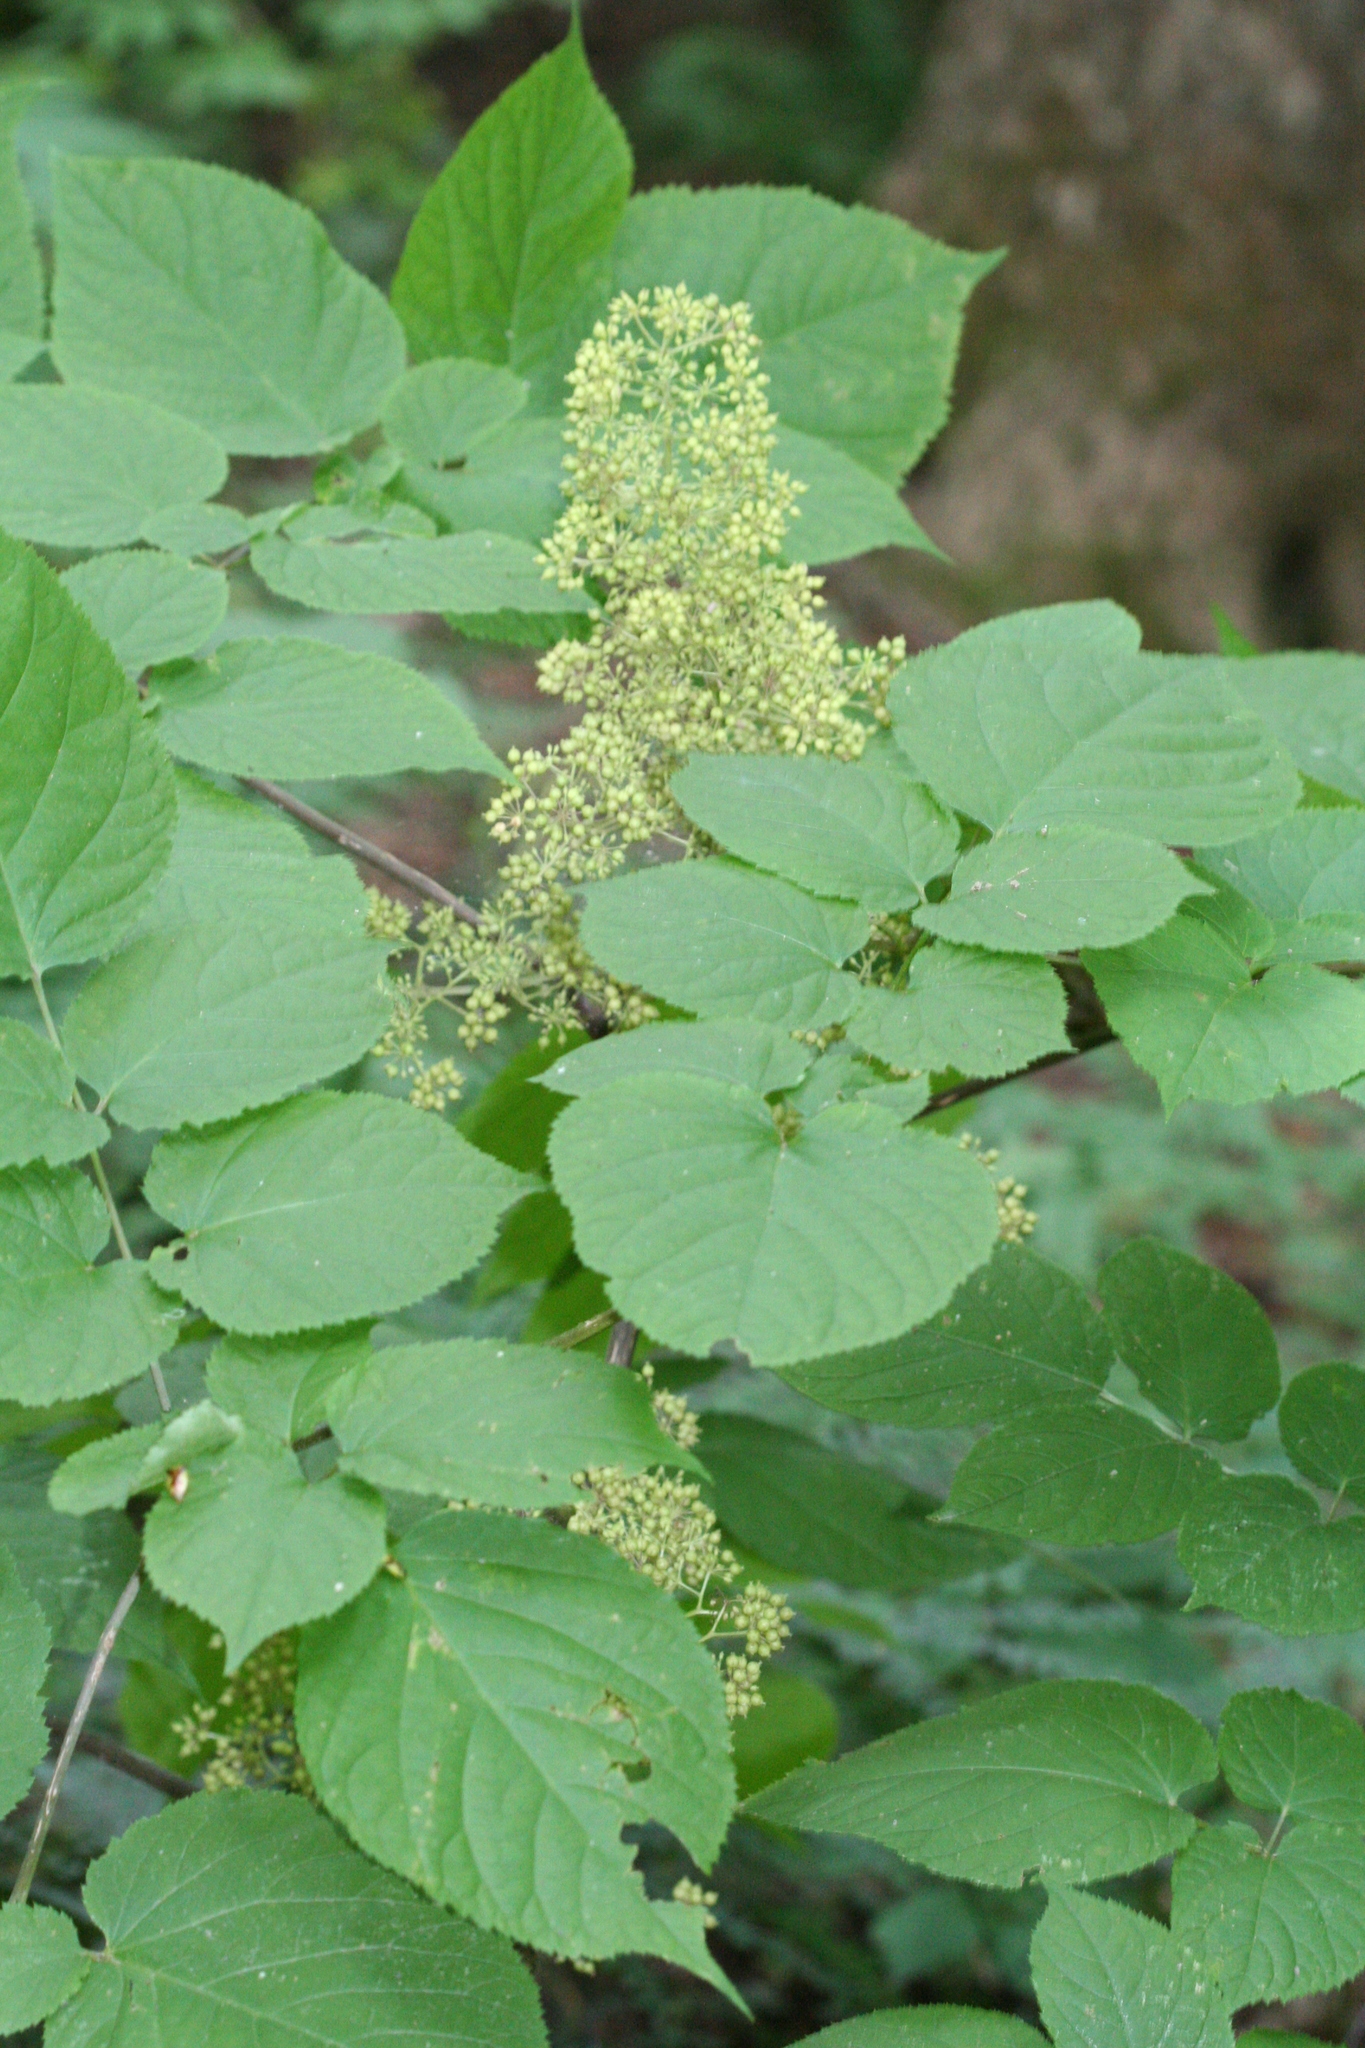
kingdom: Plantae
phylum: Tracheophyta
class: Magnoliopsida
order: Apiales
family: Araliaceae
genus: Aralia
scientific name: Aralia racemosa
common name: American-spikenard
